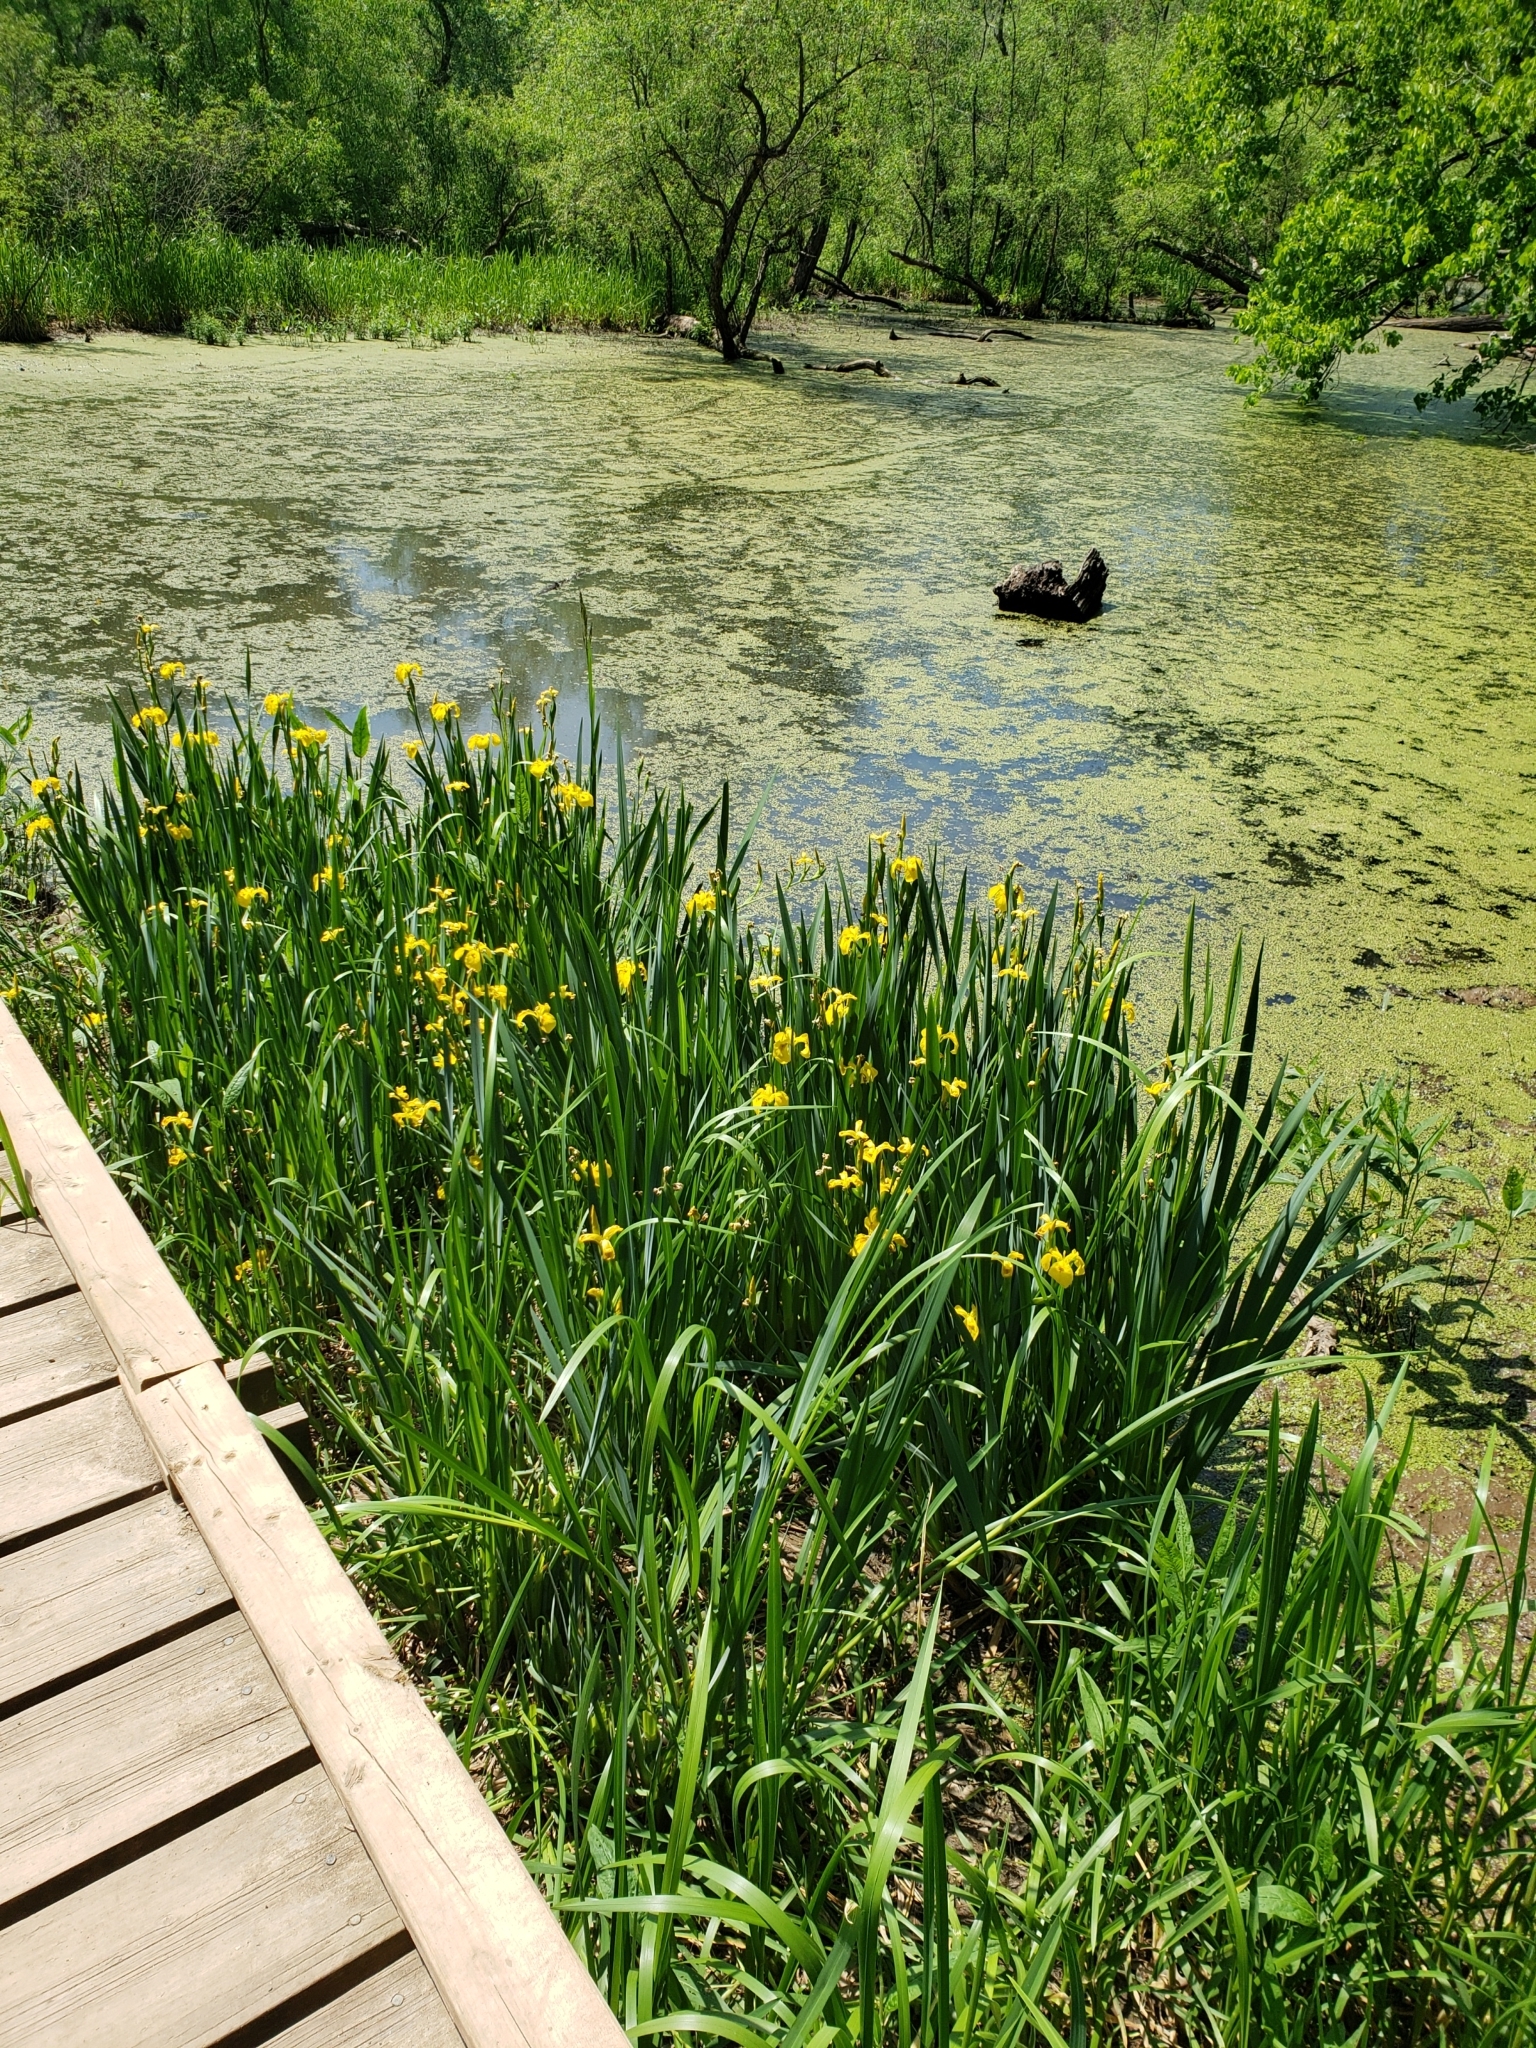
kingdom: Plantae
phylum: Tracheophyta
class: Liliopsida
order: Asparagales
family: Iridaceae
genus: Iris
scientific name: Iris pseudacorus
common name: Yellow flag
